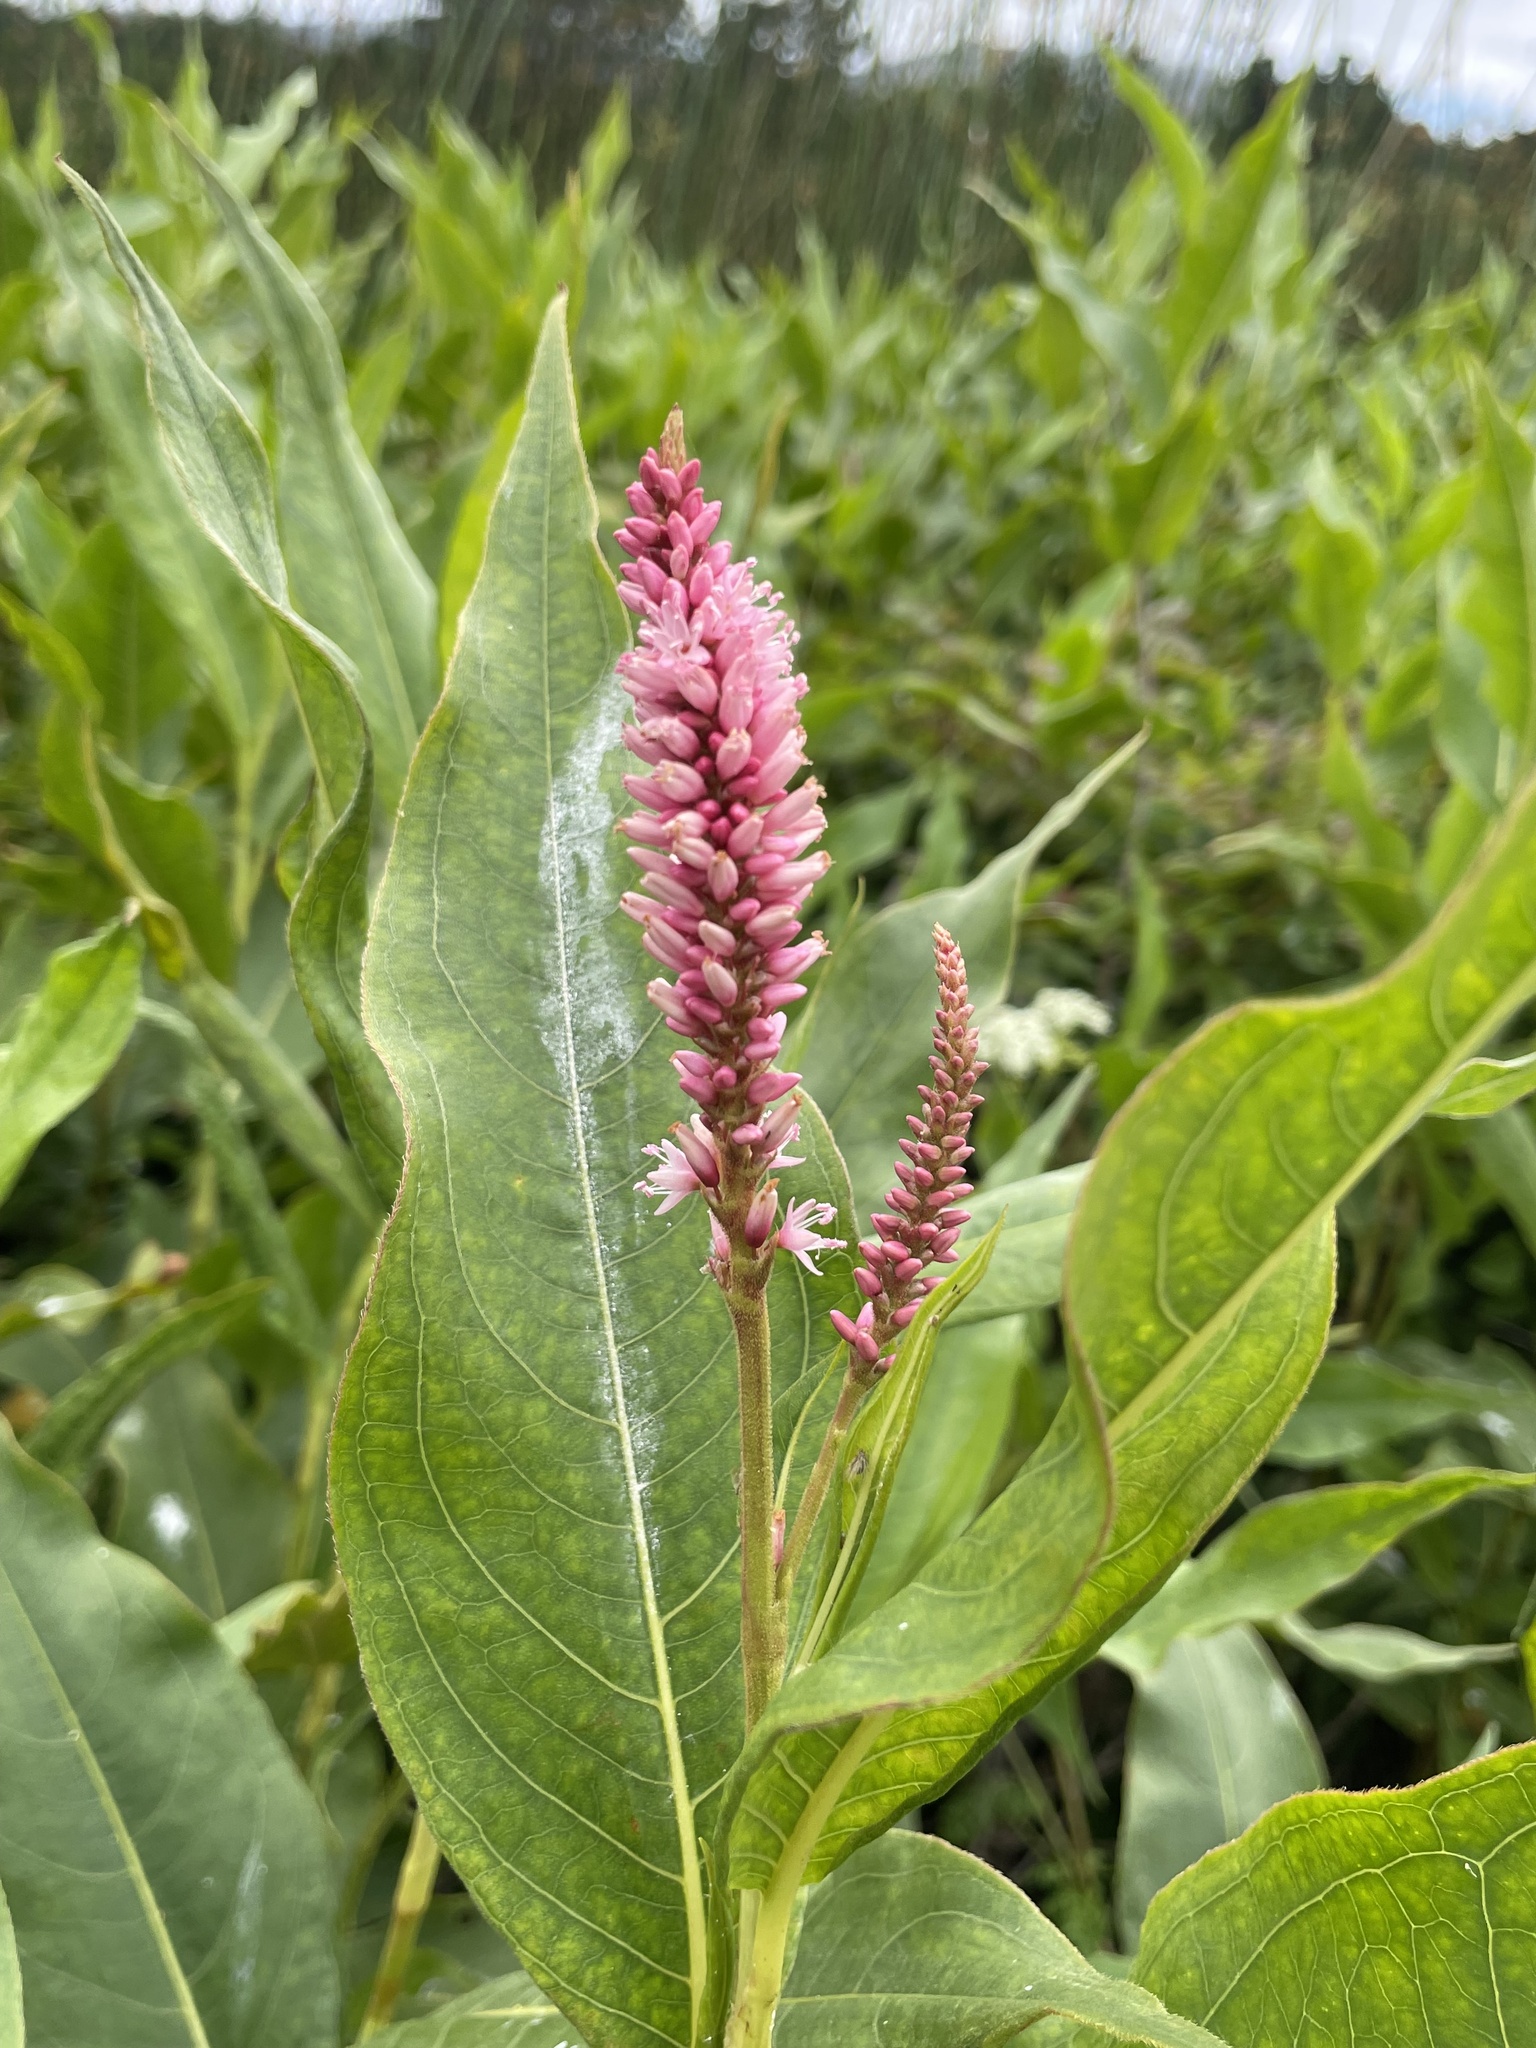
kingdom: Plantae
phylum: Tracheophyta
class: Magnoliopsida
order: Caryophyllales
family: Polygonaceae
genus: Persicaria
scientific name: Persicaria amphibia
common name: Amphibious bistort
